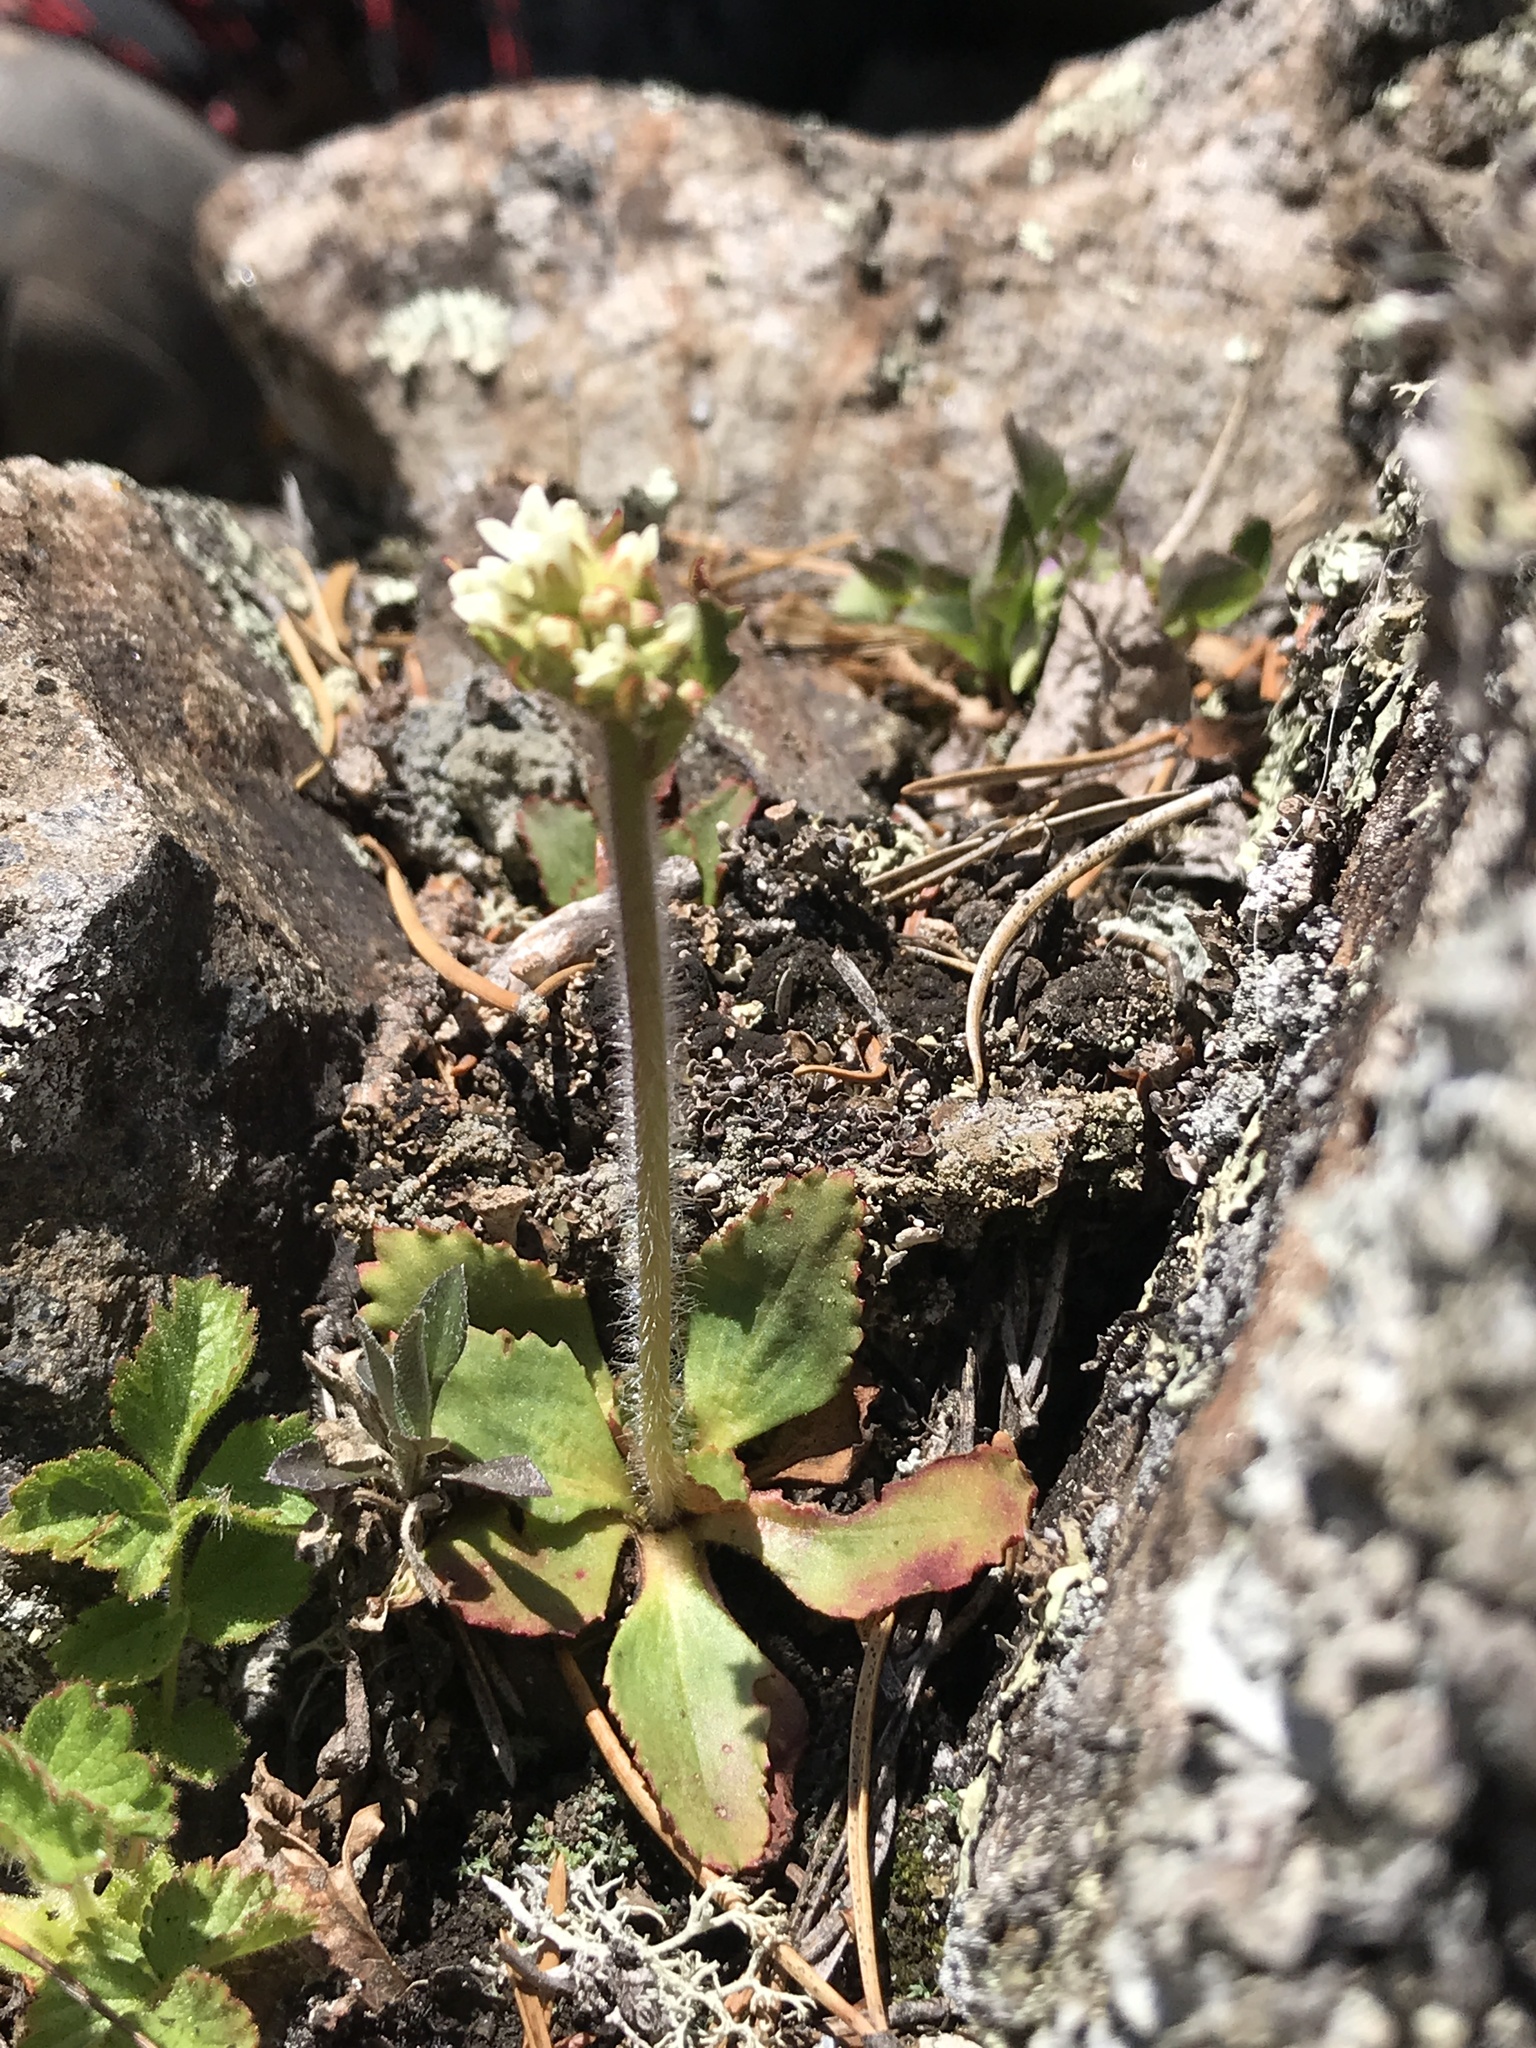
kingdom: Plantae
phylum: Tracheophyta
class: Magnoliopsida
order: Saxifragales
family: Saxifragaceae
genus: Micranthes
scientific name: Micranthes virginiensis
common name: Early saxifrage
